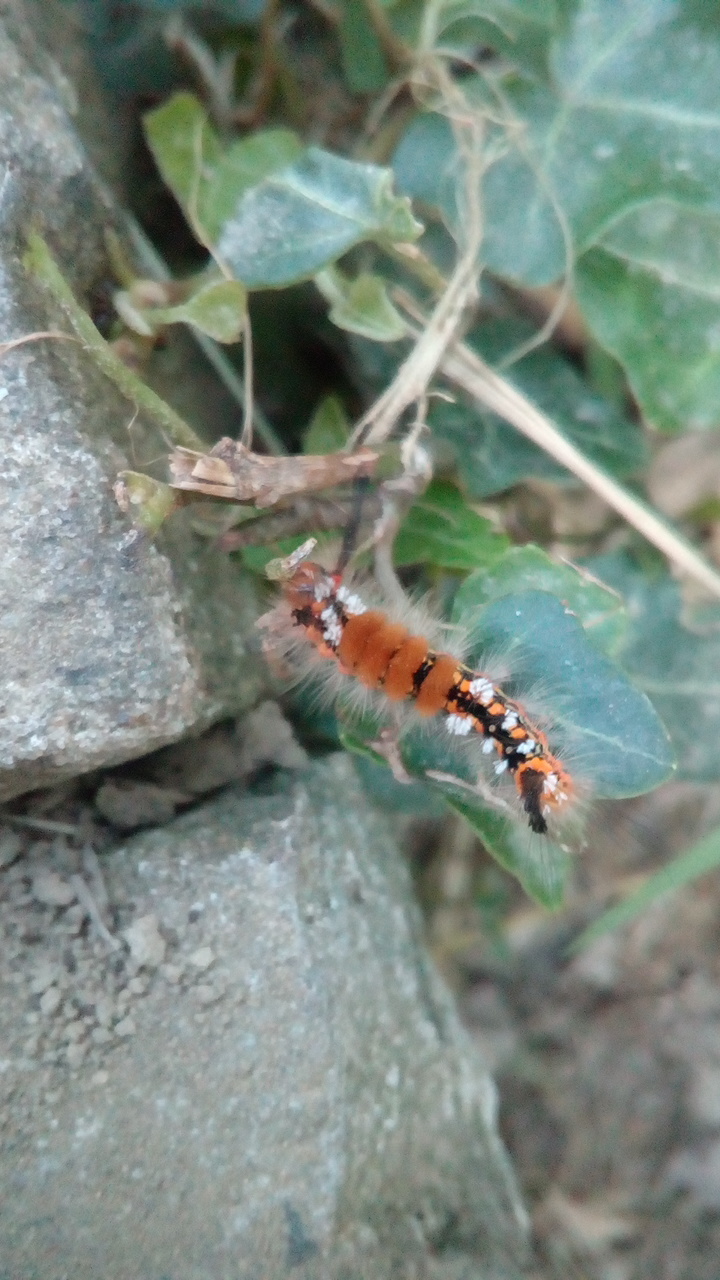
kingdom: Animalia
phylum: Arthropoda
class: Insecta
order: Lepidoptera
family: Erebidae
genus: Orgyia
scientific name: Orgyia recens
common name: Scarce vapourer
